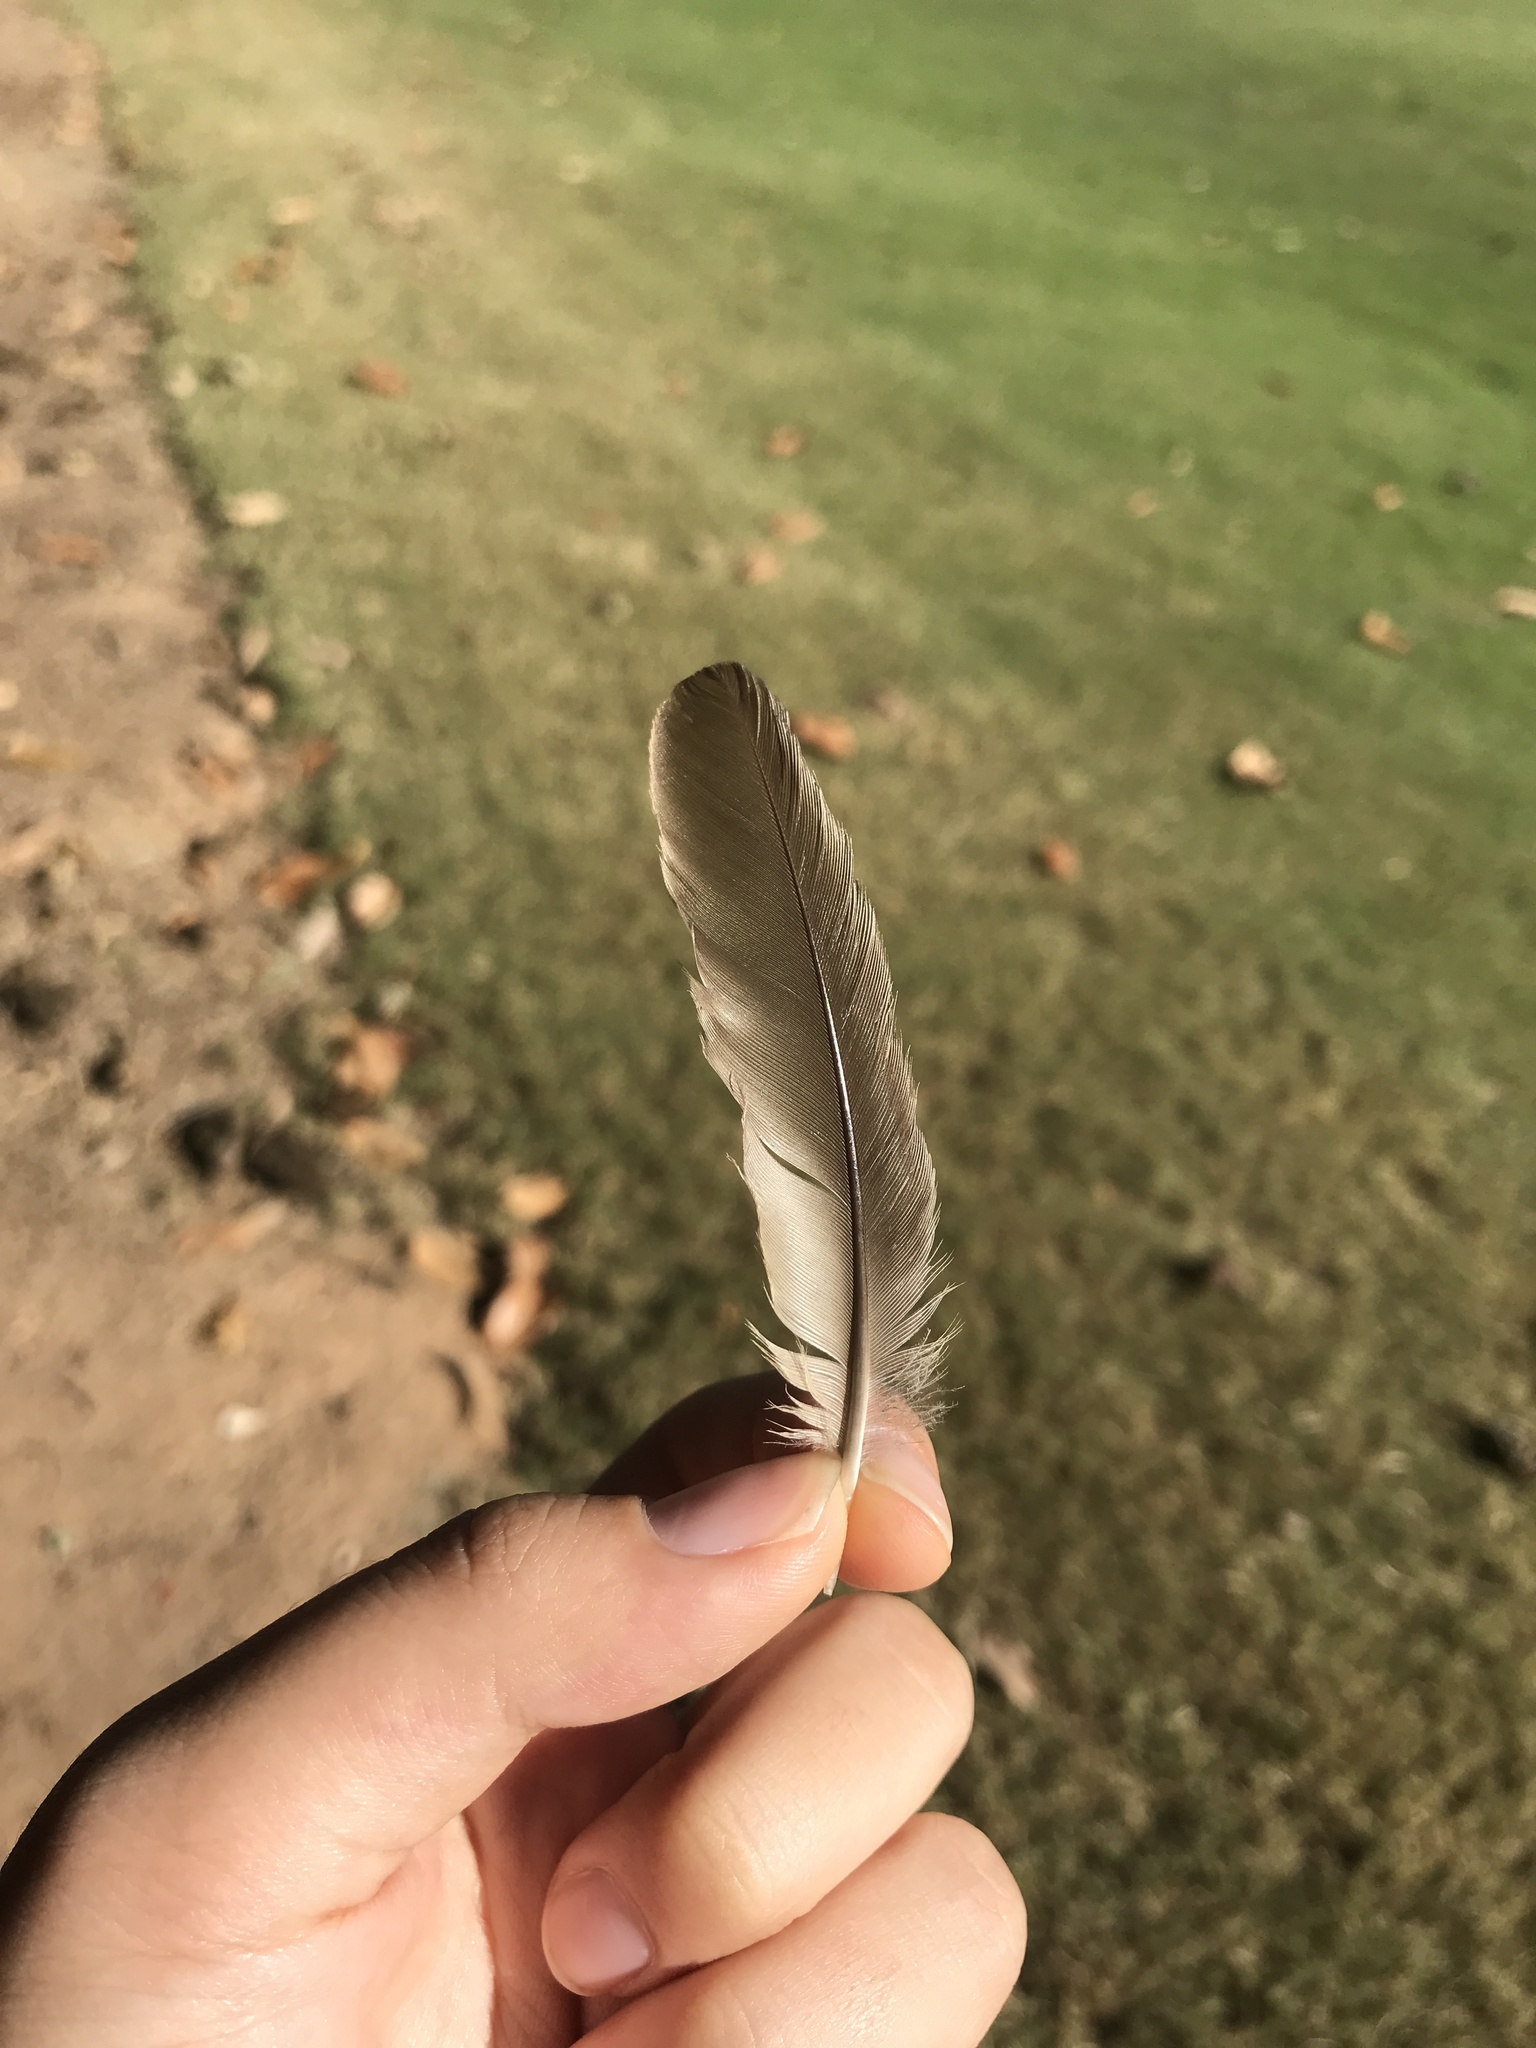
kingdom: Animalia
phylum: Chordata
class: Aves
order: Passeriformes
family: Turdidae
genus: Turdus
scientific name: Turdus migratorius
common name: American robin
